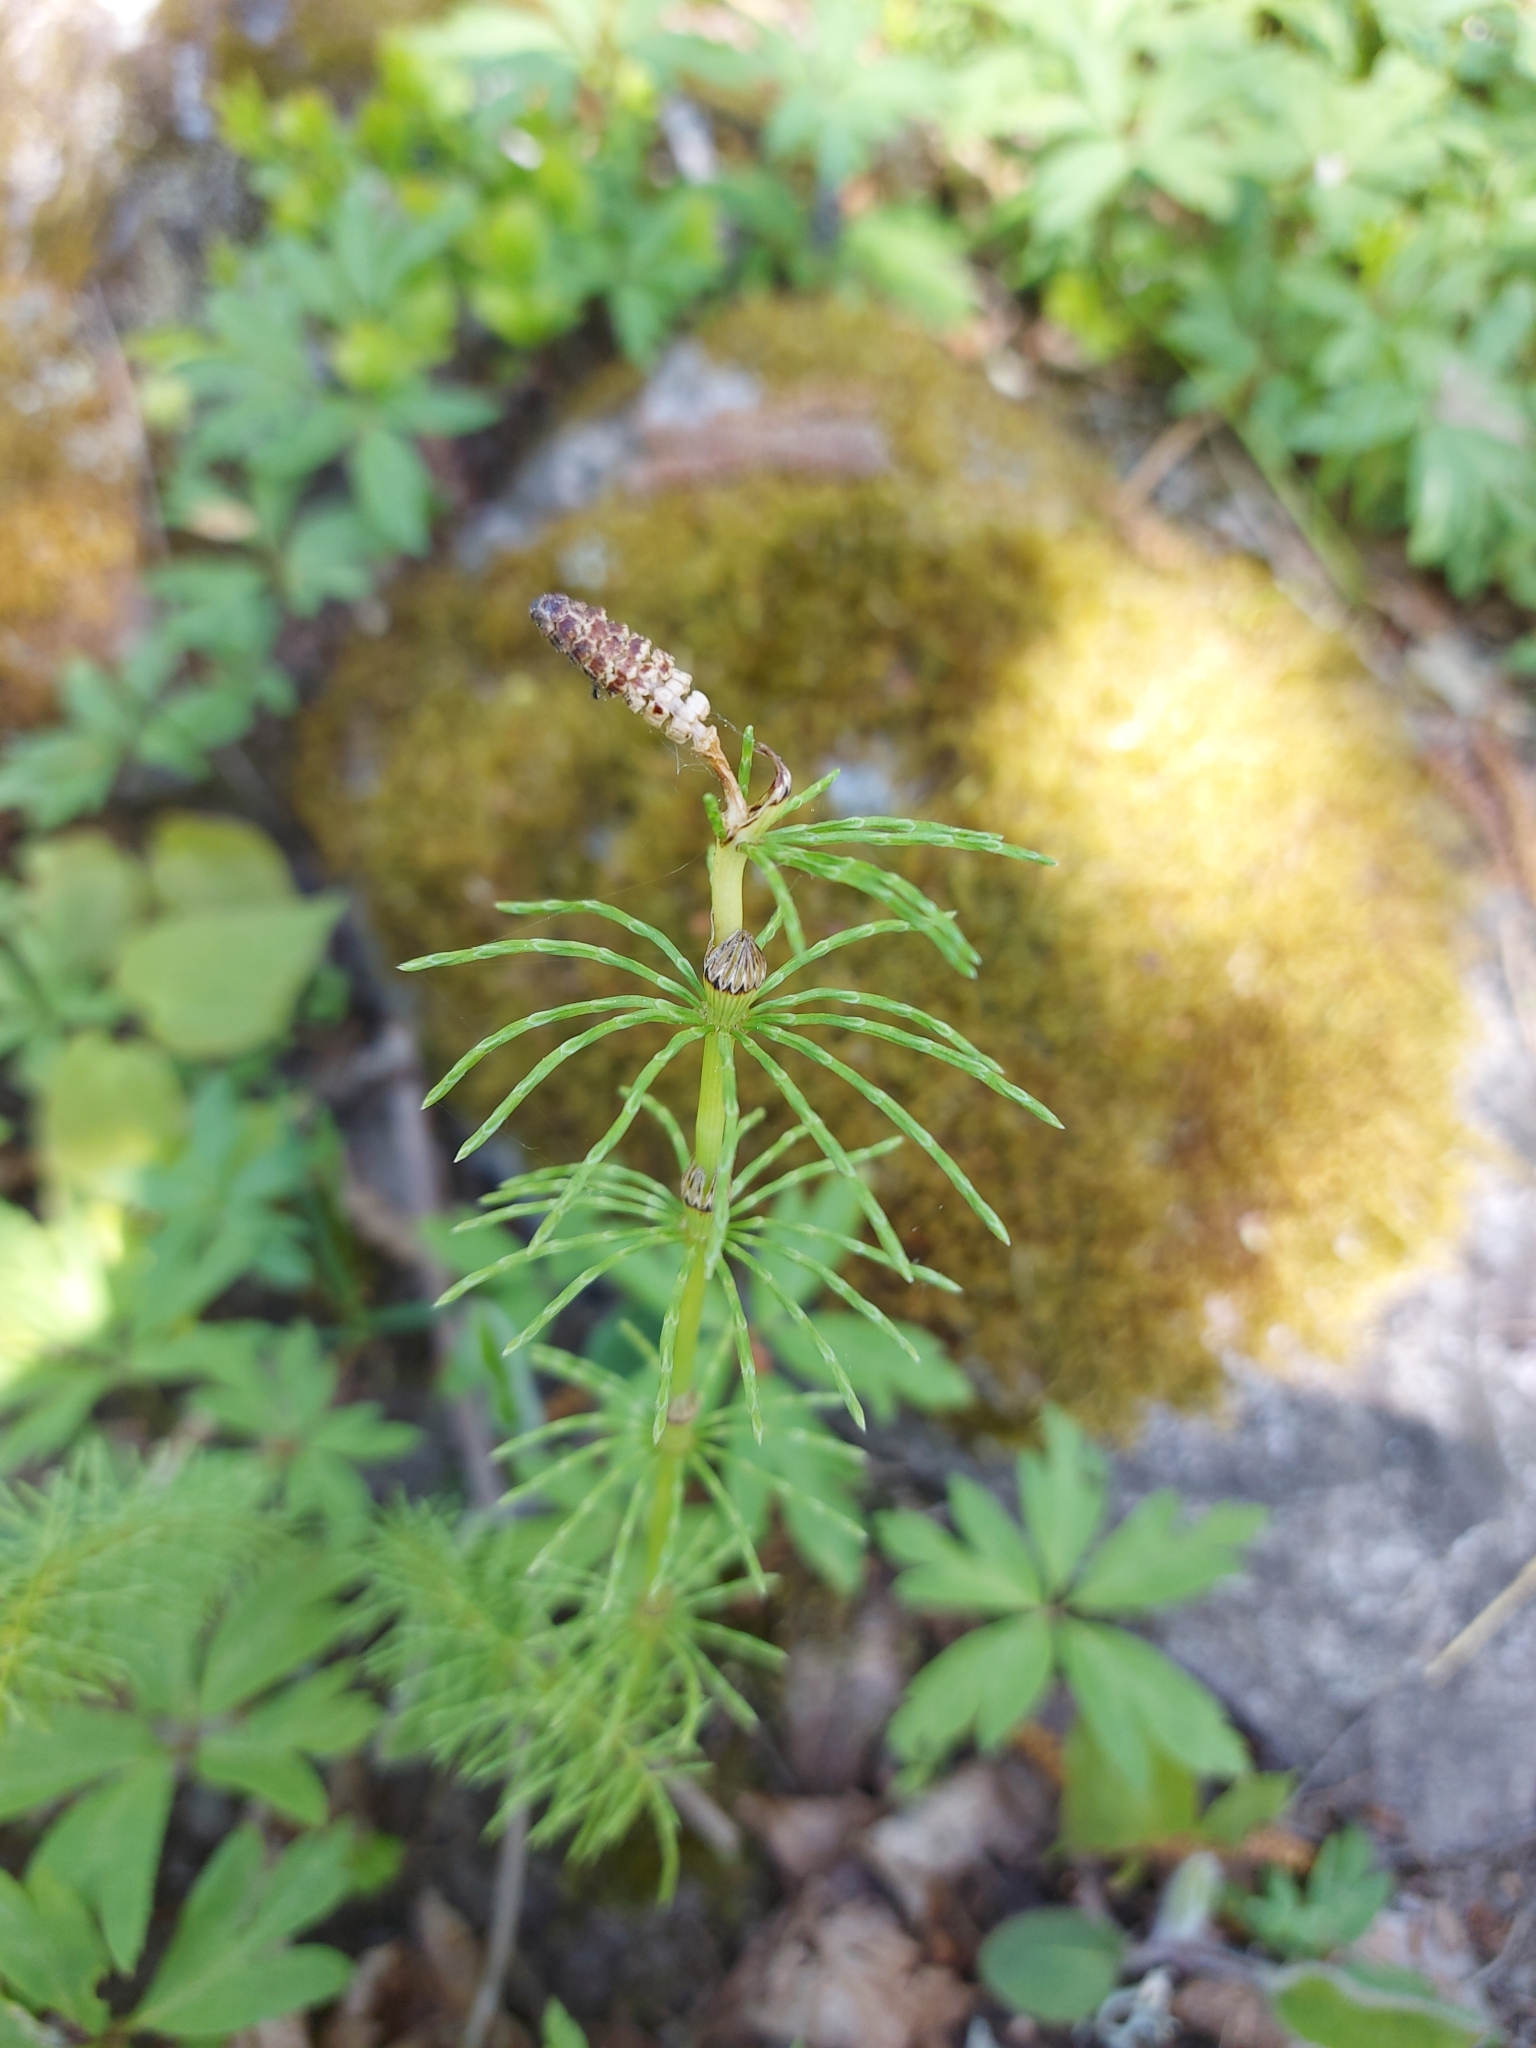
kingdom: Plantae
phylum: Tracheophyta
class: Polypodiopsida
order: Equisetales
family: Equisetaceae
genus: Equisetum
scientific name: Equisetum pratense
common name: Meadow horsetail
